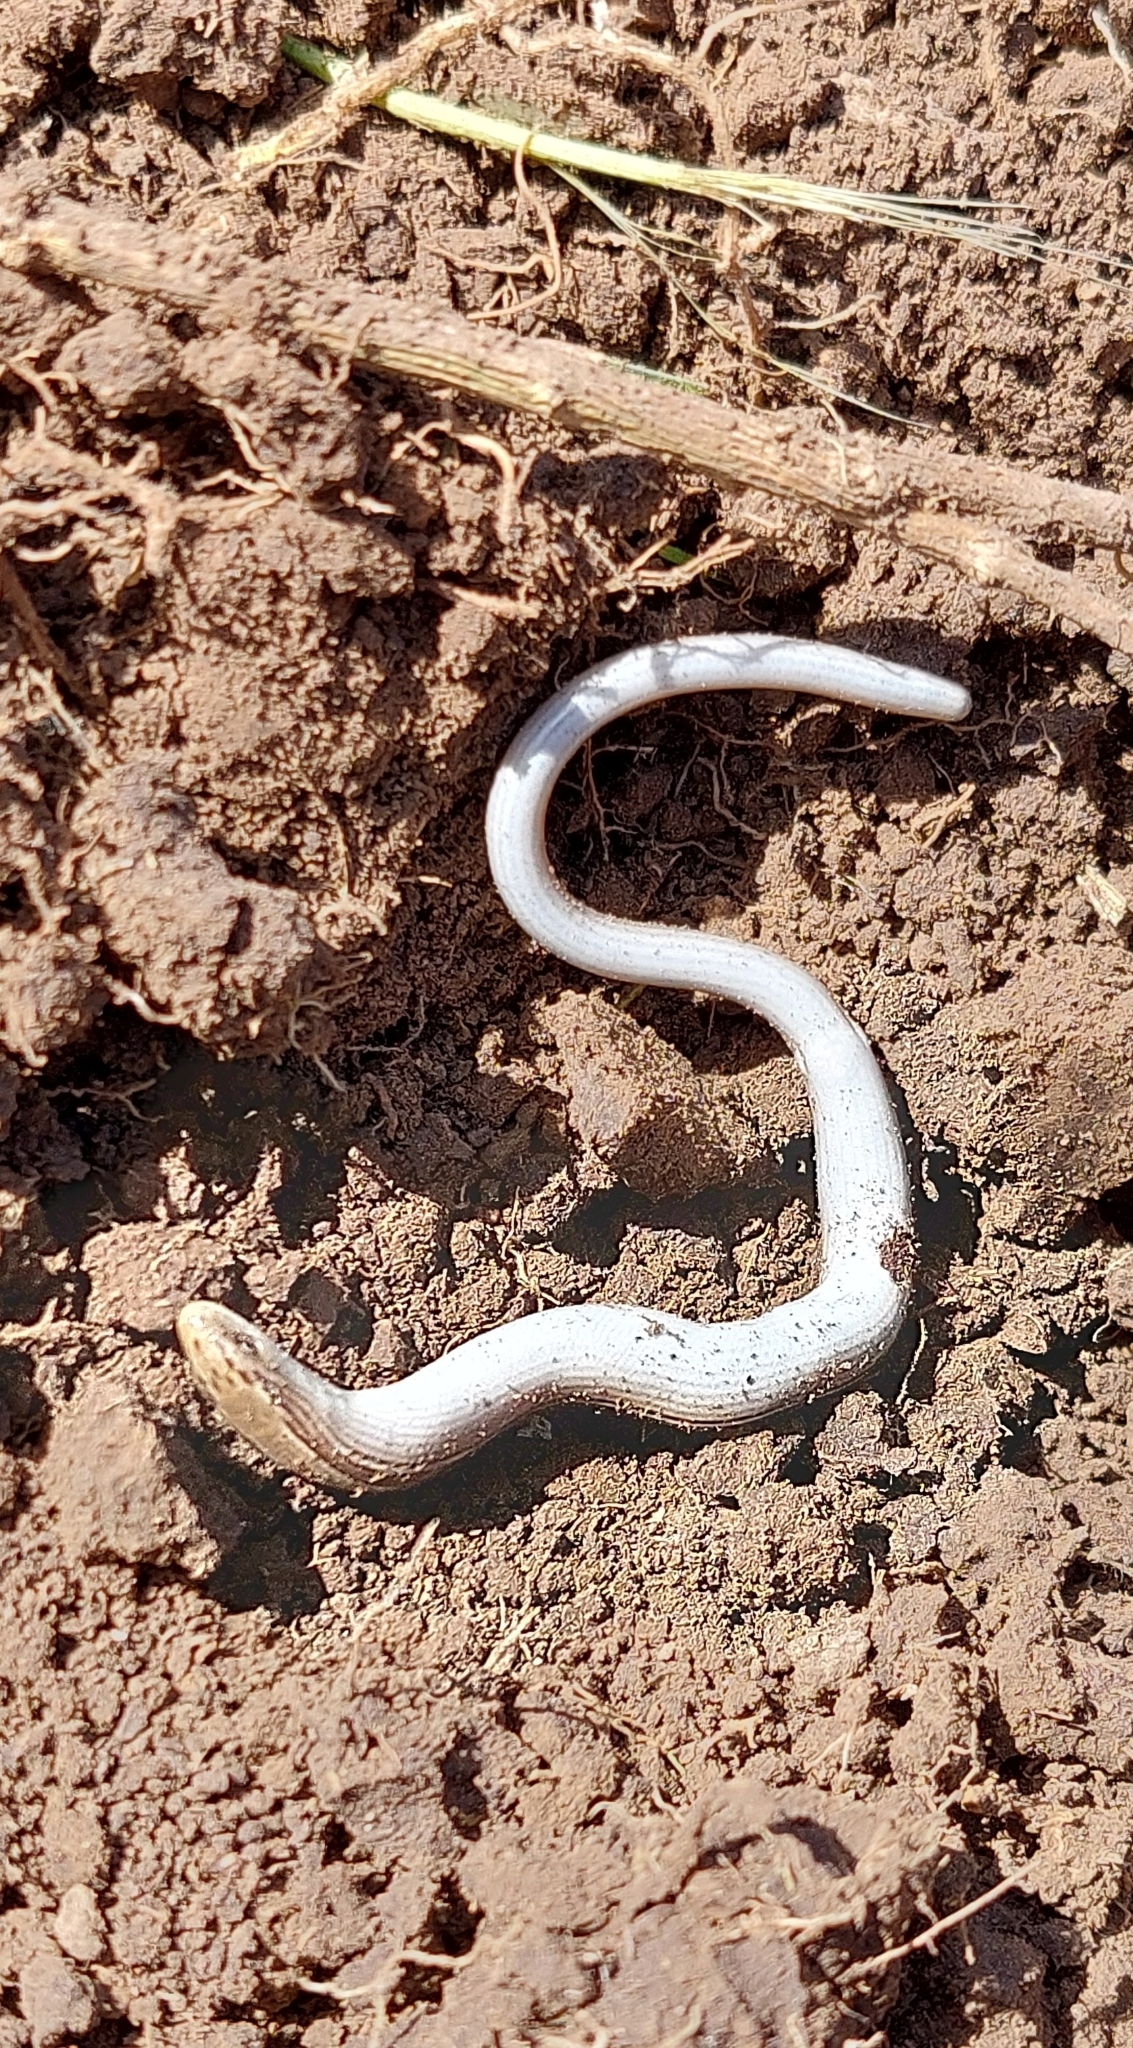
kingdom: Animalia
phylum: Chordata
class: Squamata
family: Diploglossidae
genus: Ophiodes
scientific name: Ophiodes vertebralis
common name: Jointed worm lizard
